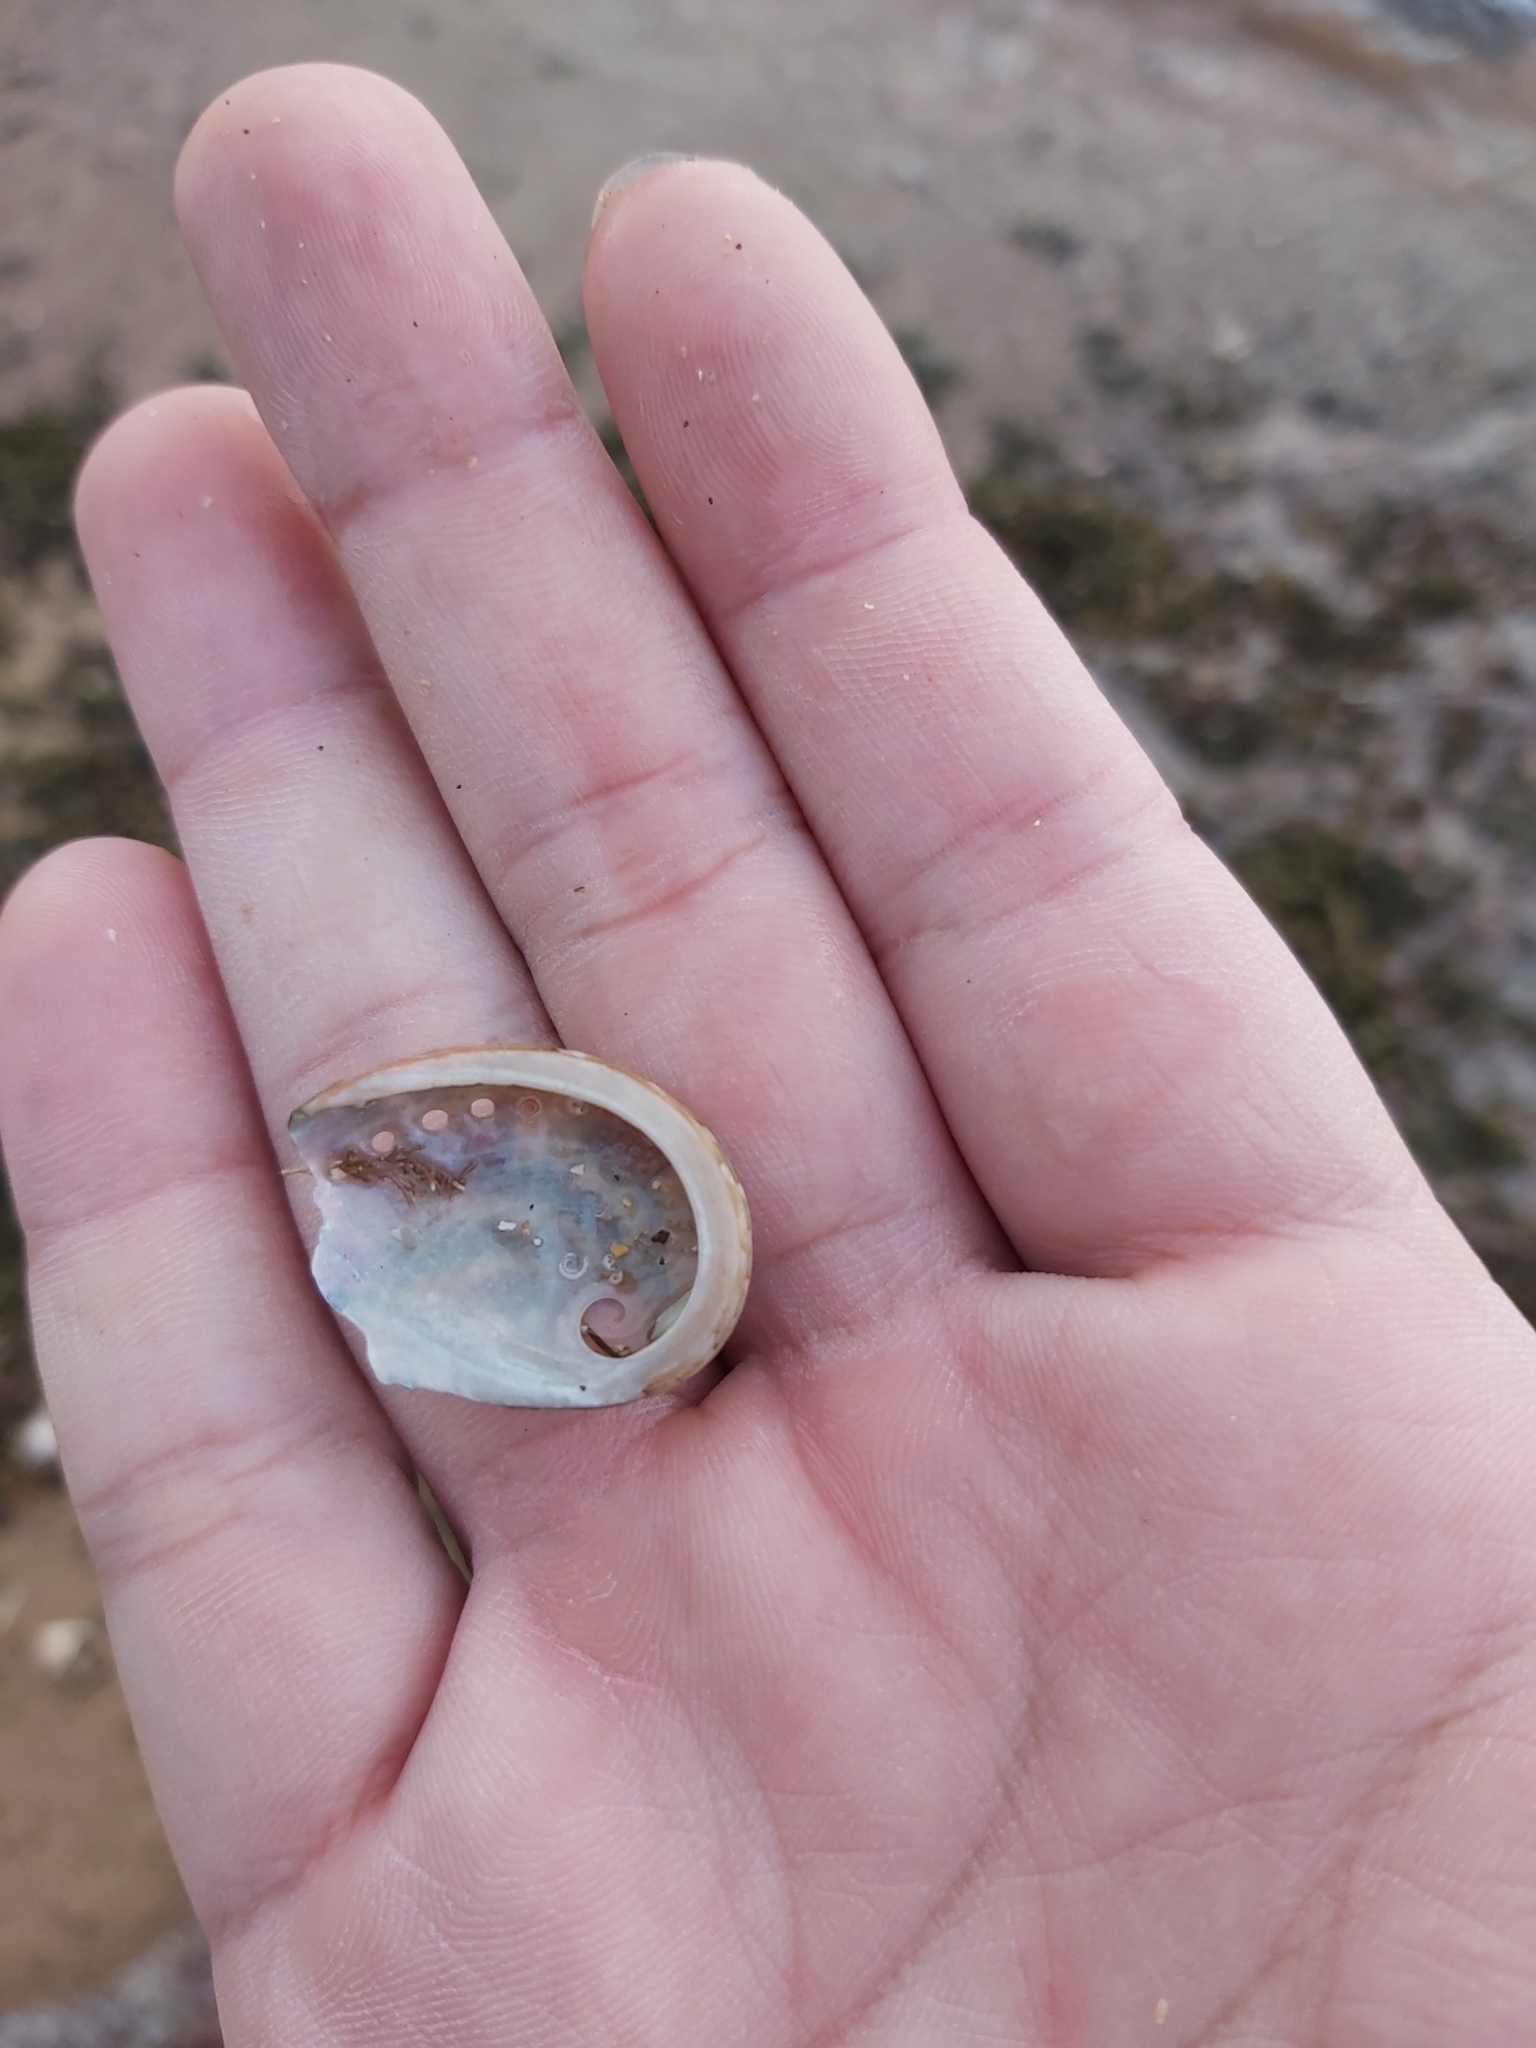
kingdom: Animalia
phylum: Mollusca
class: Gastropoda
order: Lepetellida
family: Haliotidae
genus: Haliotis
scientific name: Haliotis coccoradiata
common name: Reddish-rayed abalone
